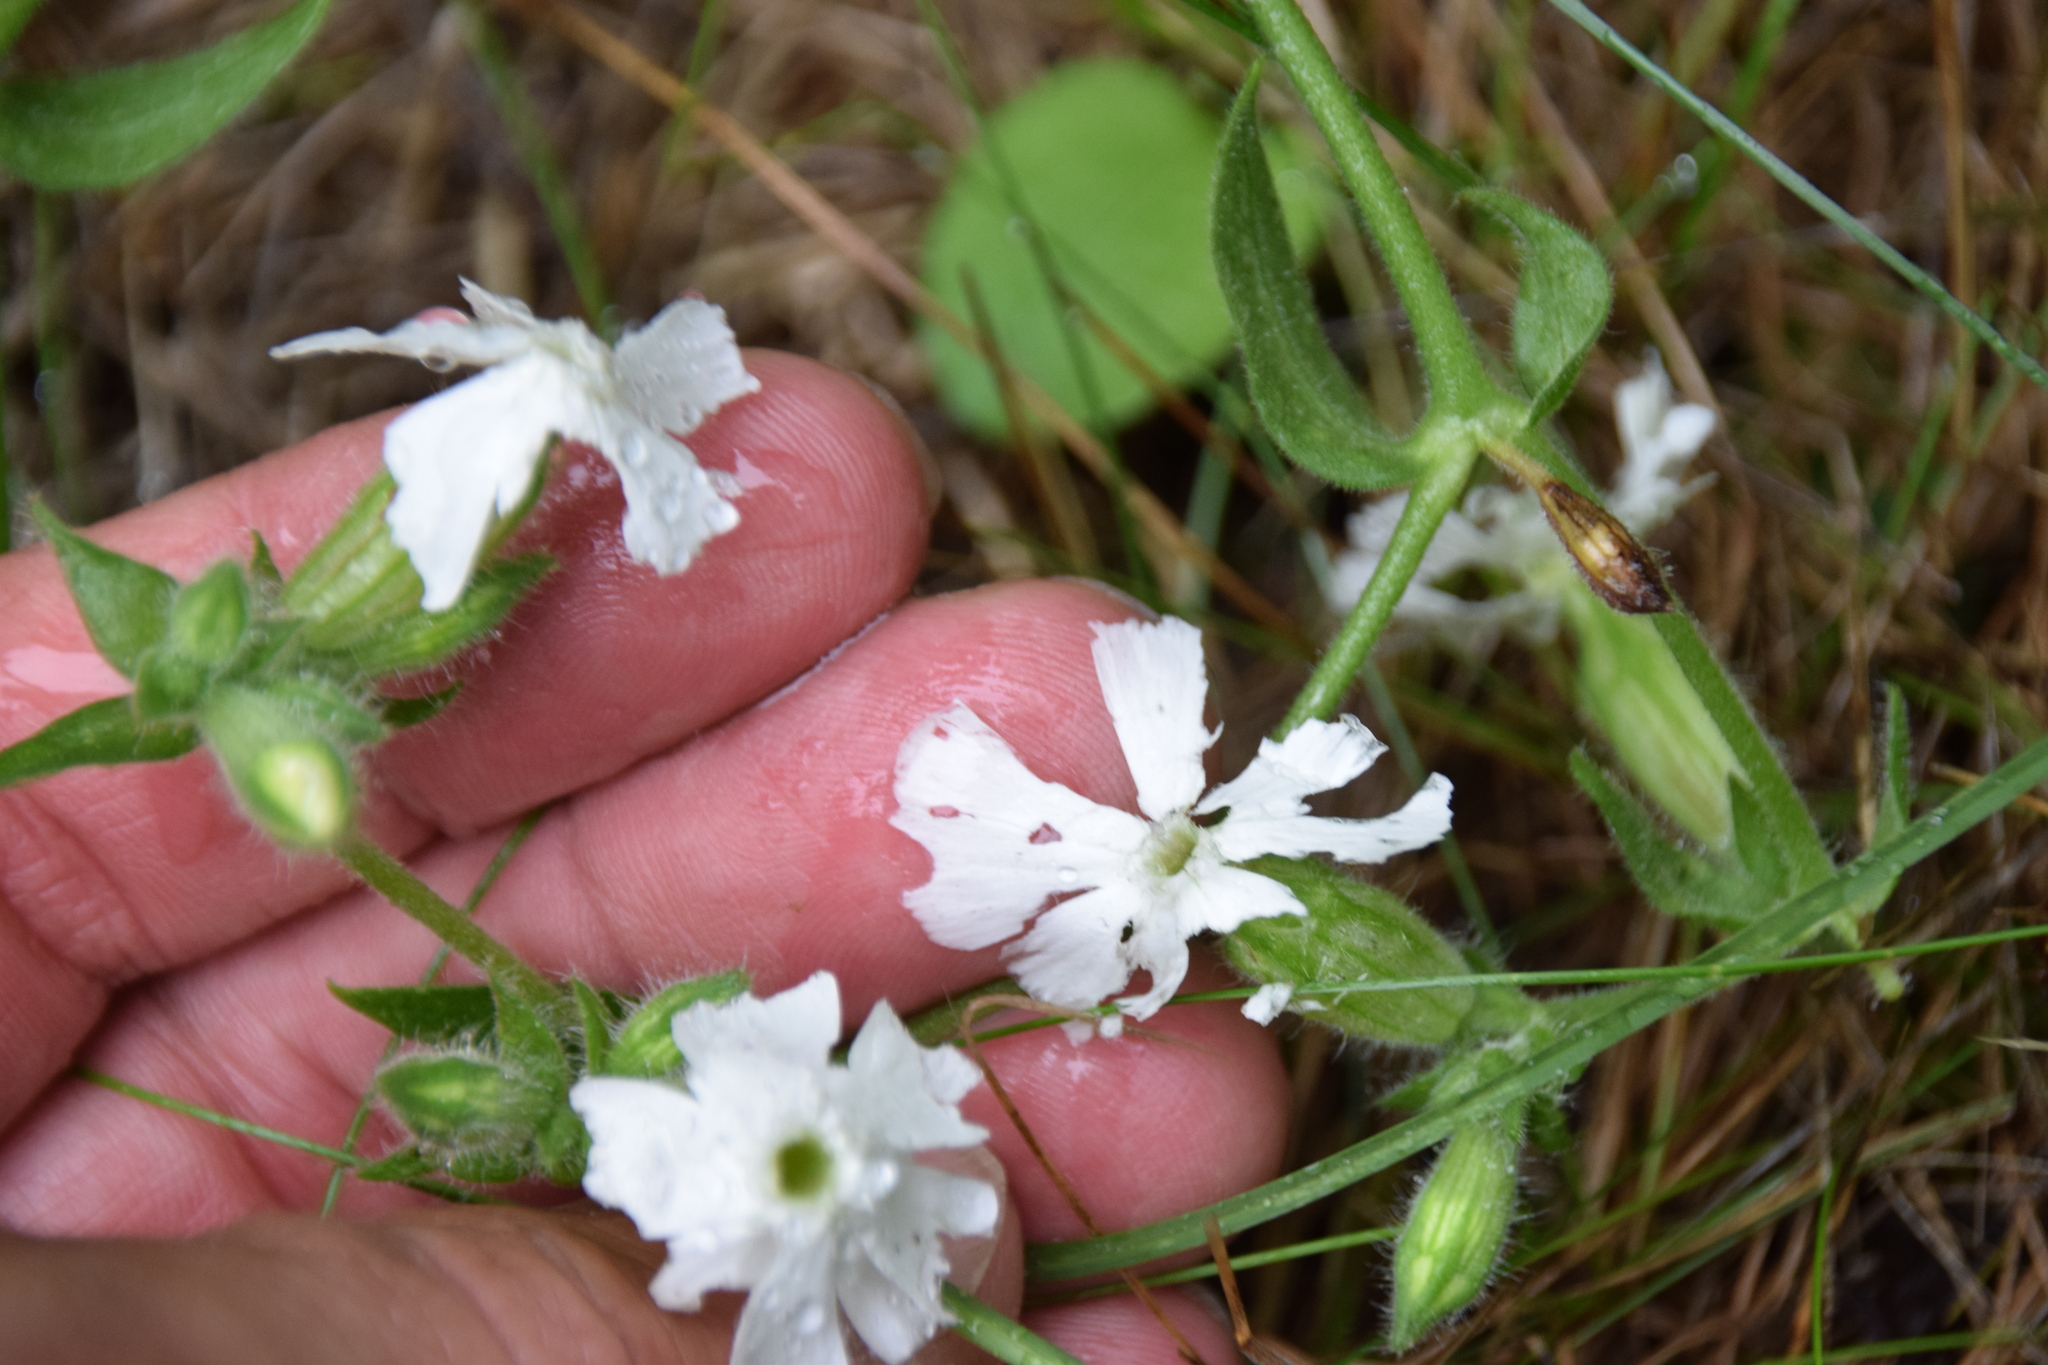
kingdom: Plantae
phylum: Tracheophyta
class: Magnoliopsida
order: Caryophyllales
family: Caryophyllaceae
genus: Silene
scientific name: Silene latifolia
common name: White campion
